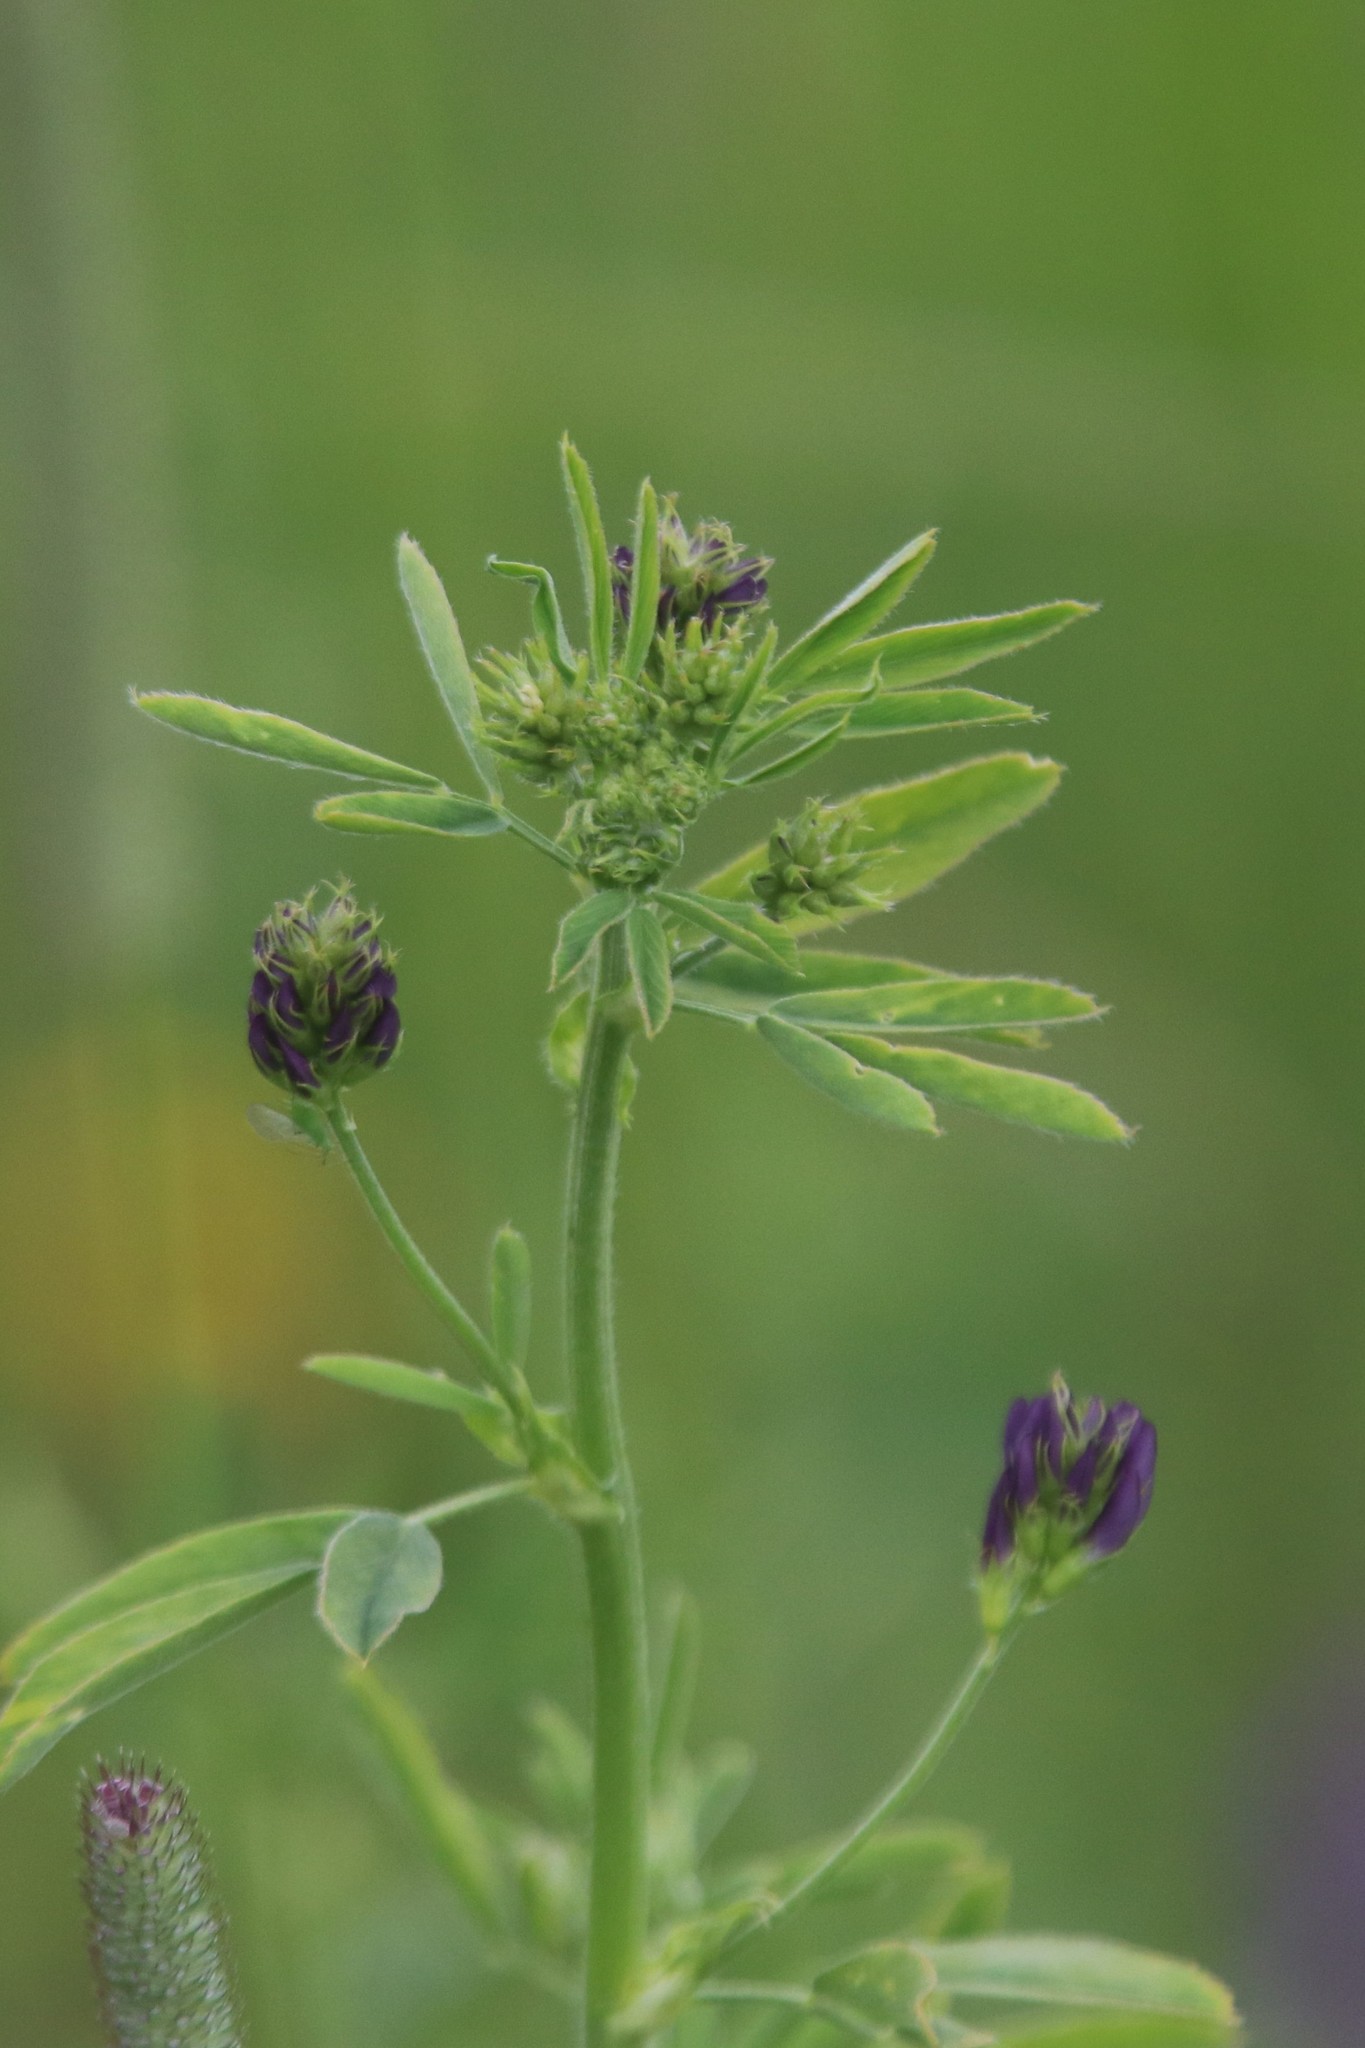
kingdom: Plantae
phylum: Tracheophyta
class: Magnoliopsida
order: Fabales
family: Fabaceae
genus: Medicago
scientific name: Medicago varia
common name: Sand lucerne
